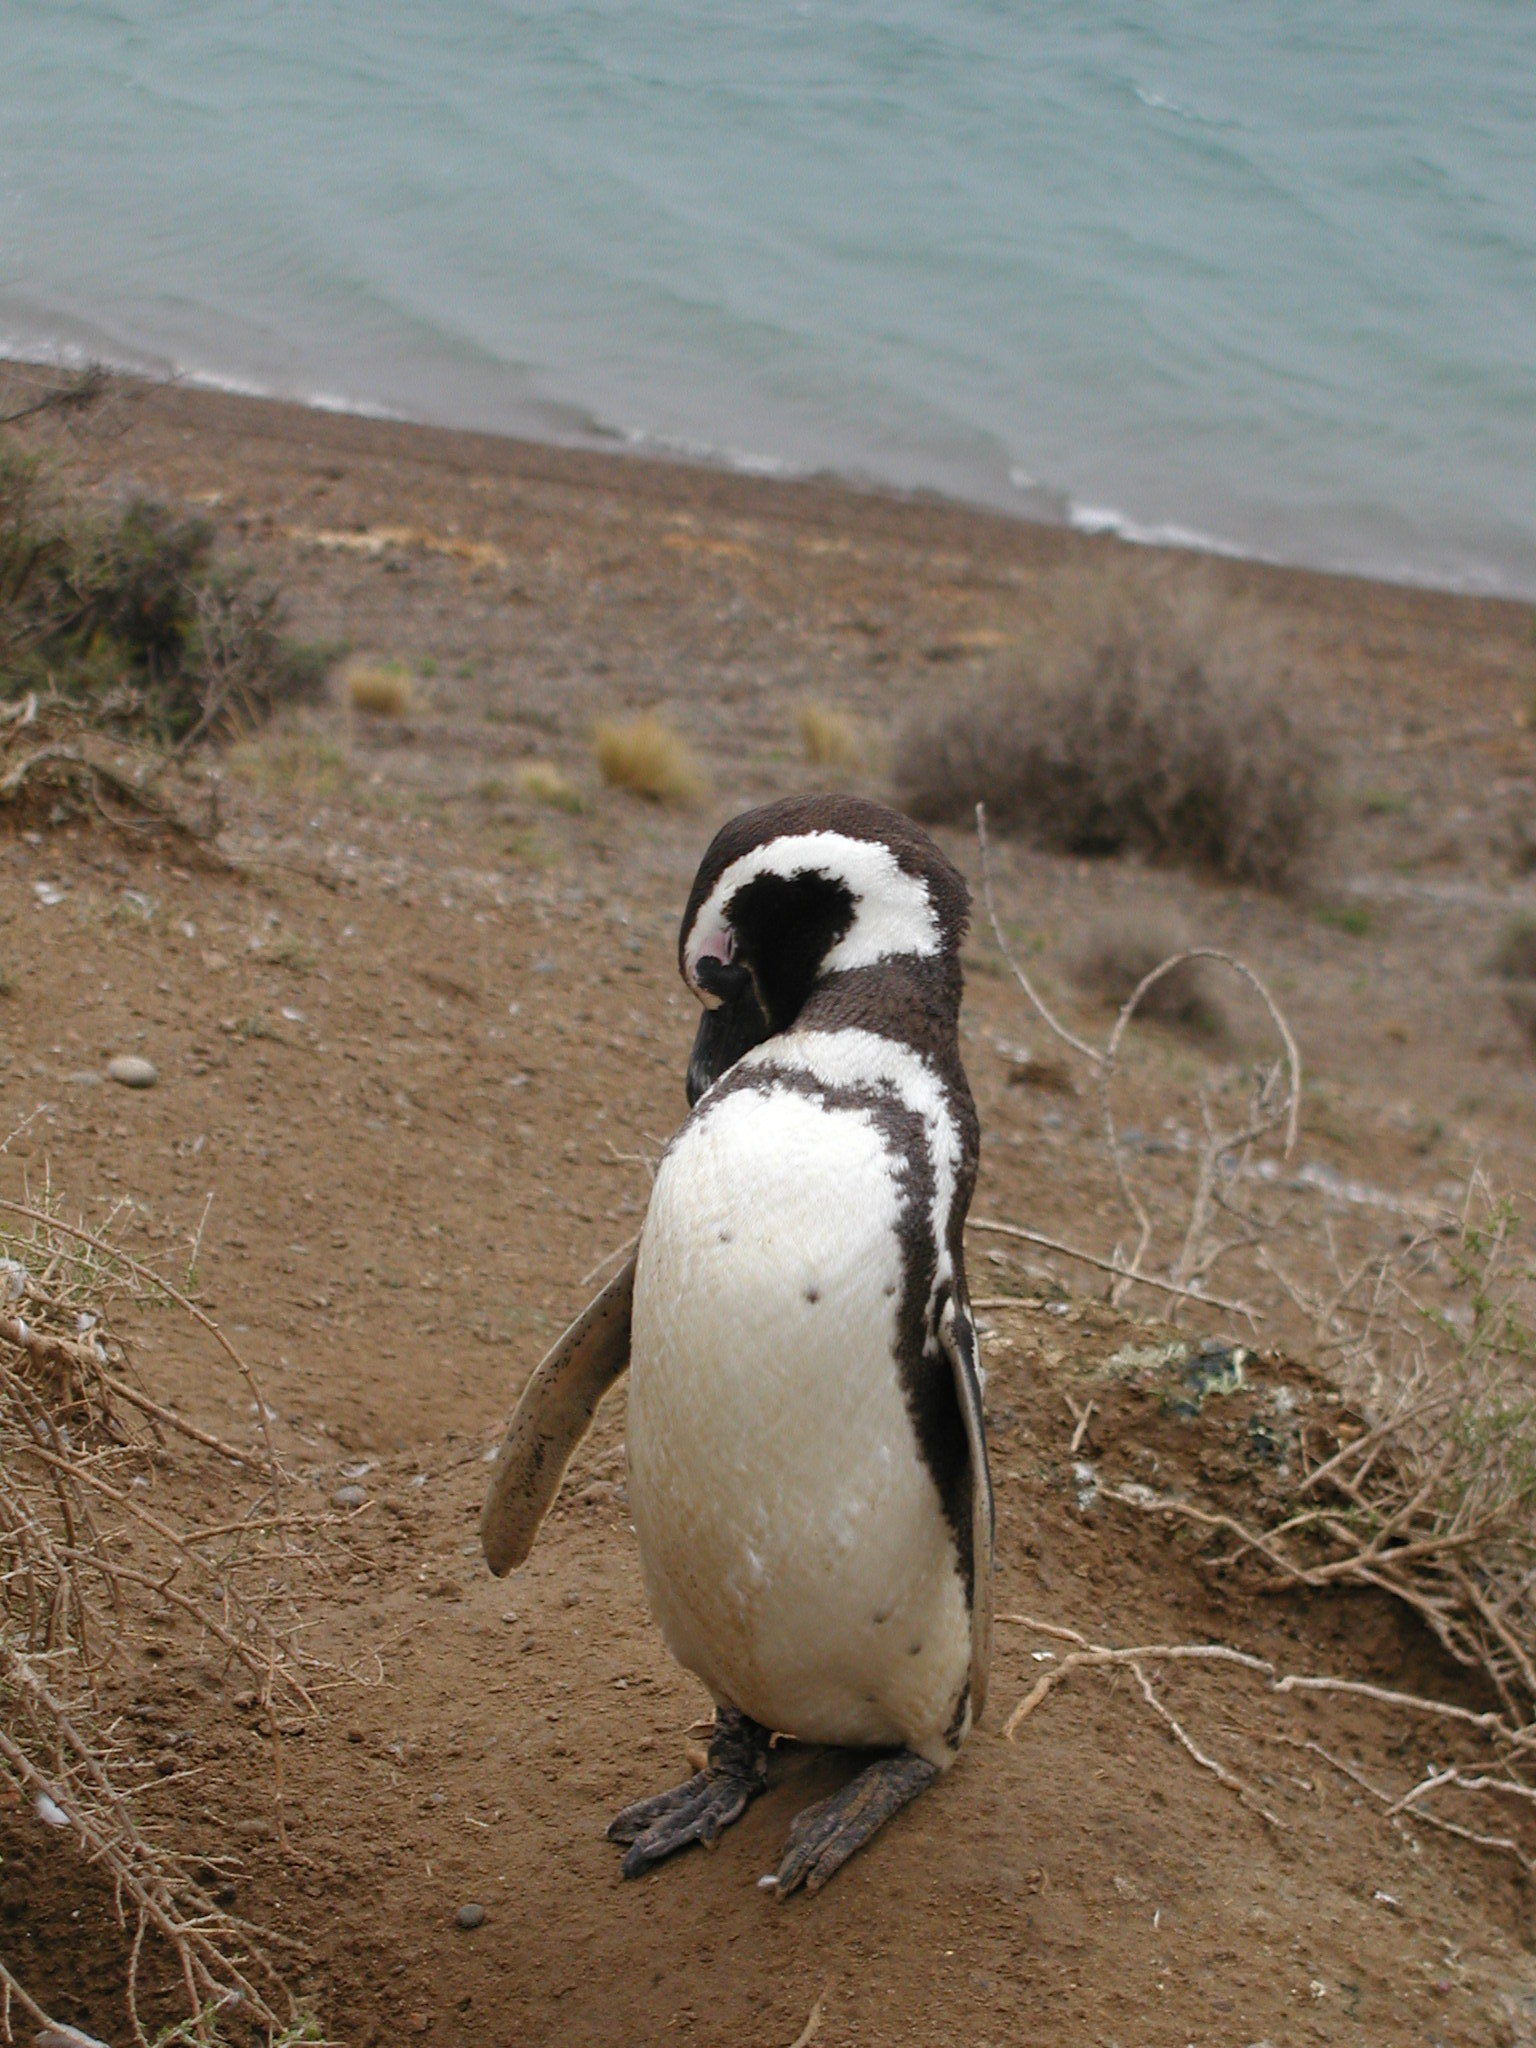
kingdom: Animalia
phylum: Chordata
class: Aves
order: Sphenisciformes
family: Spheniscidae
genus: Spheniscus
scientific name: Spheniscus magellanicus
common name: Magellanic penguin
